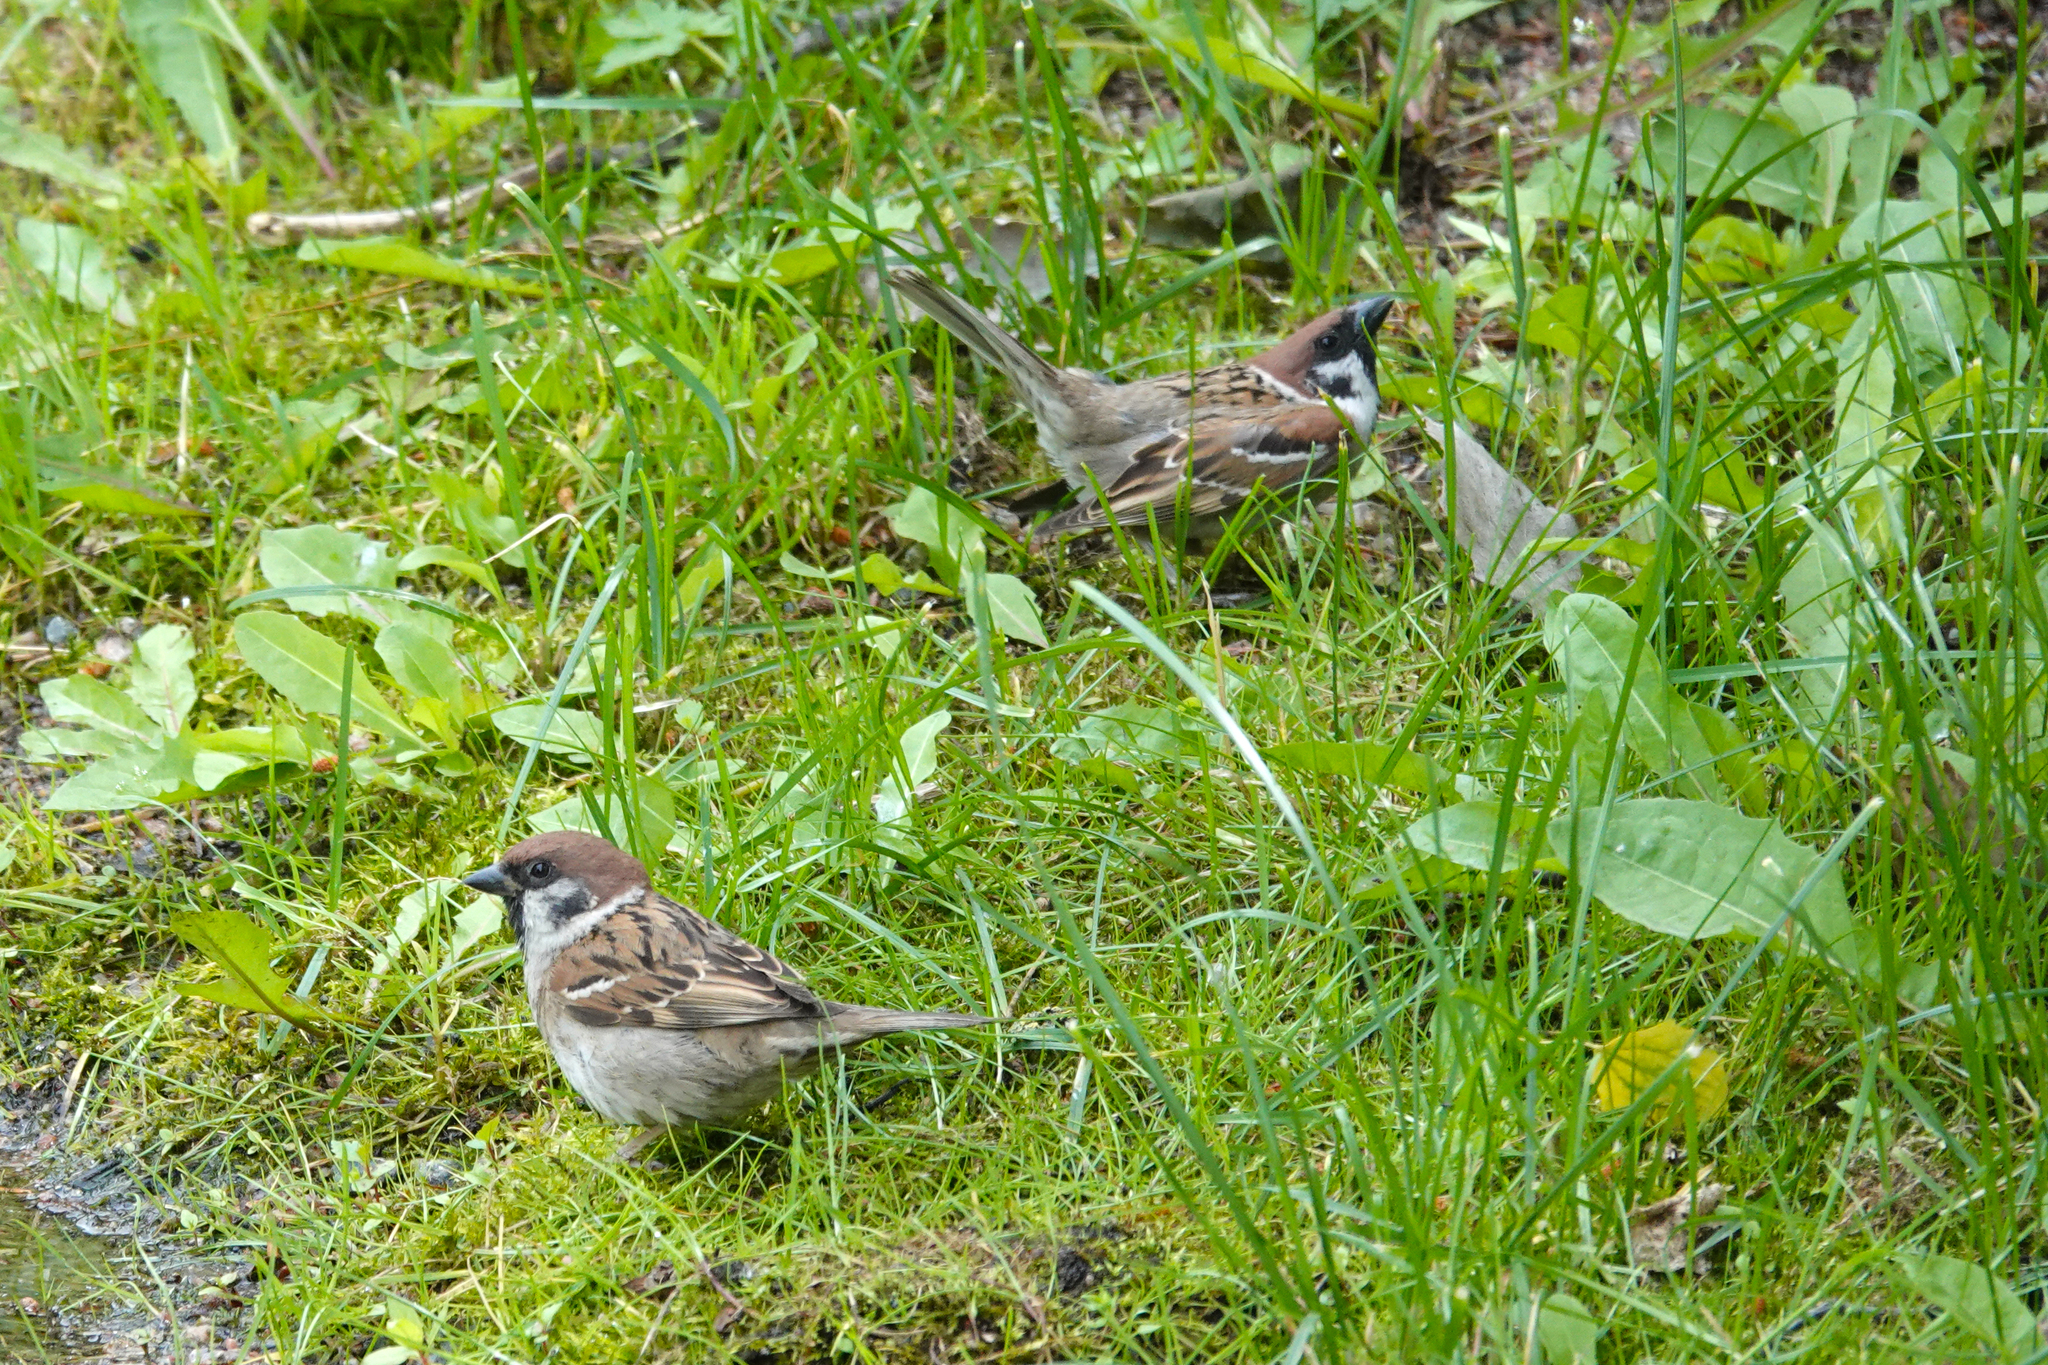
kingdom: Animalia
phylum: Chordata
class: Aves
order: Passeriformes
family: Passeridae
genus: Passer
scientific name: Passer montanus
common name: Eurasian tree sparrow
